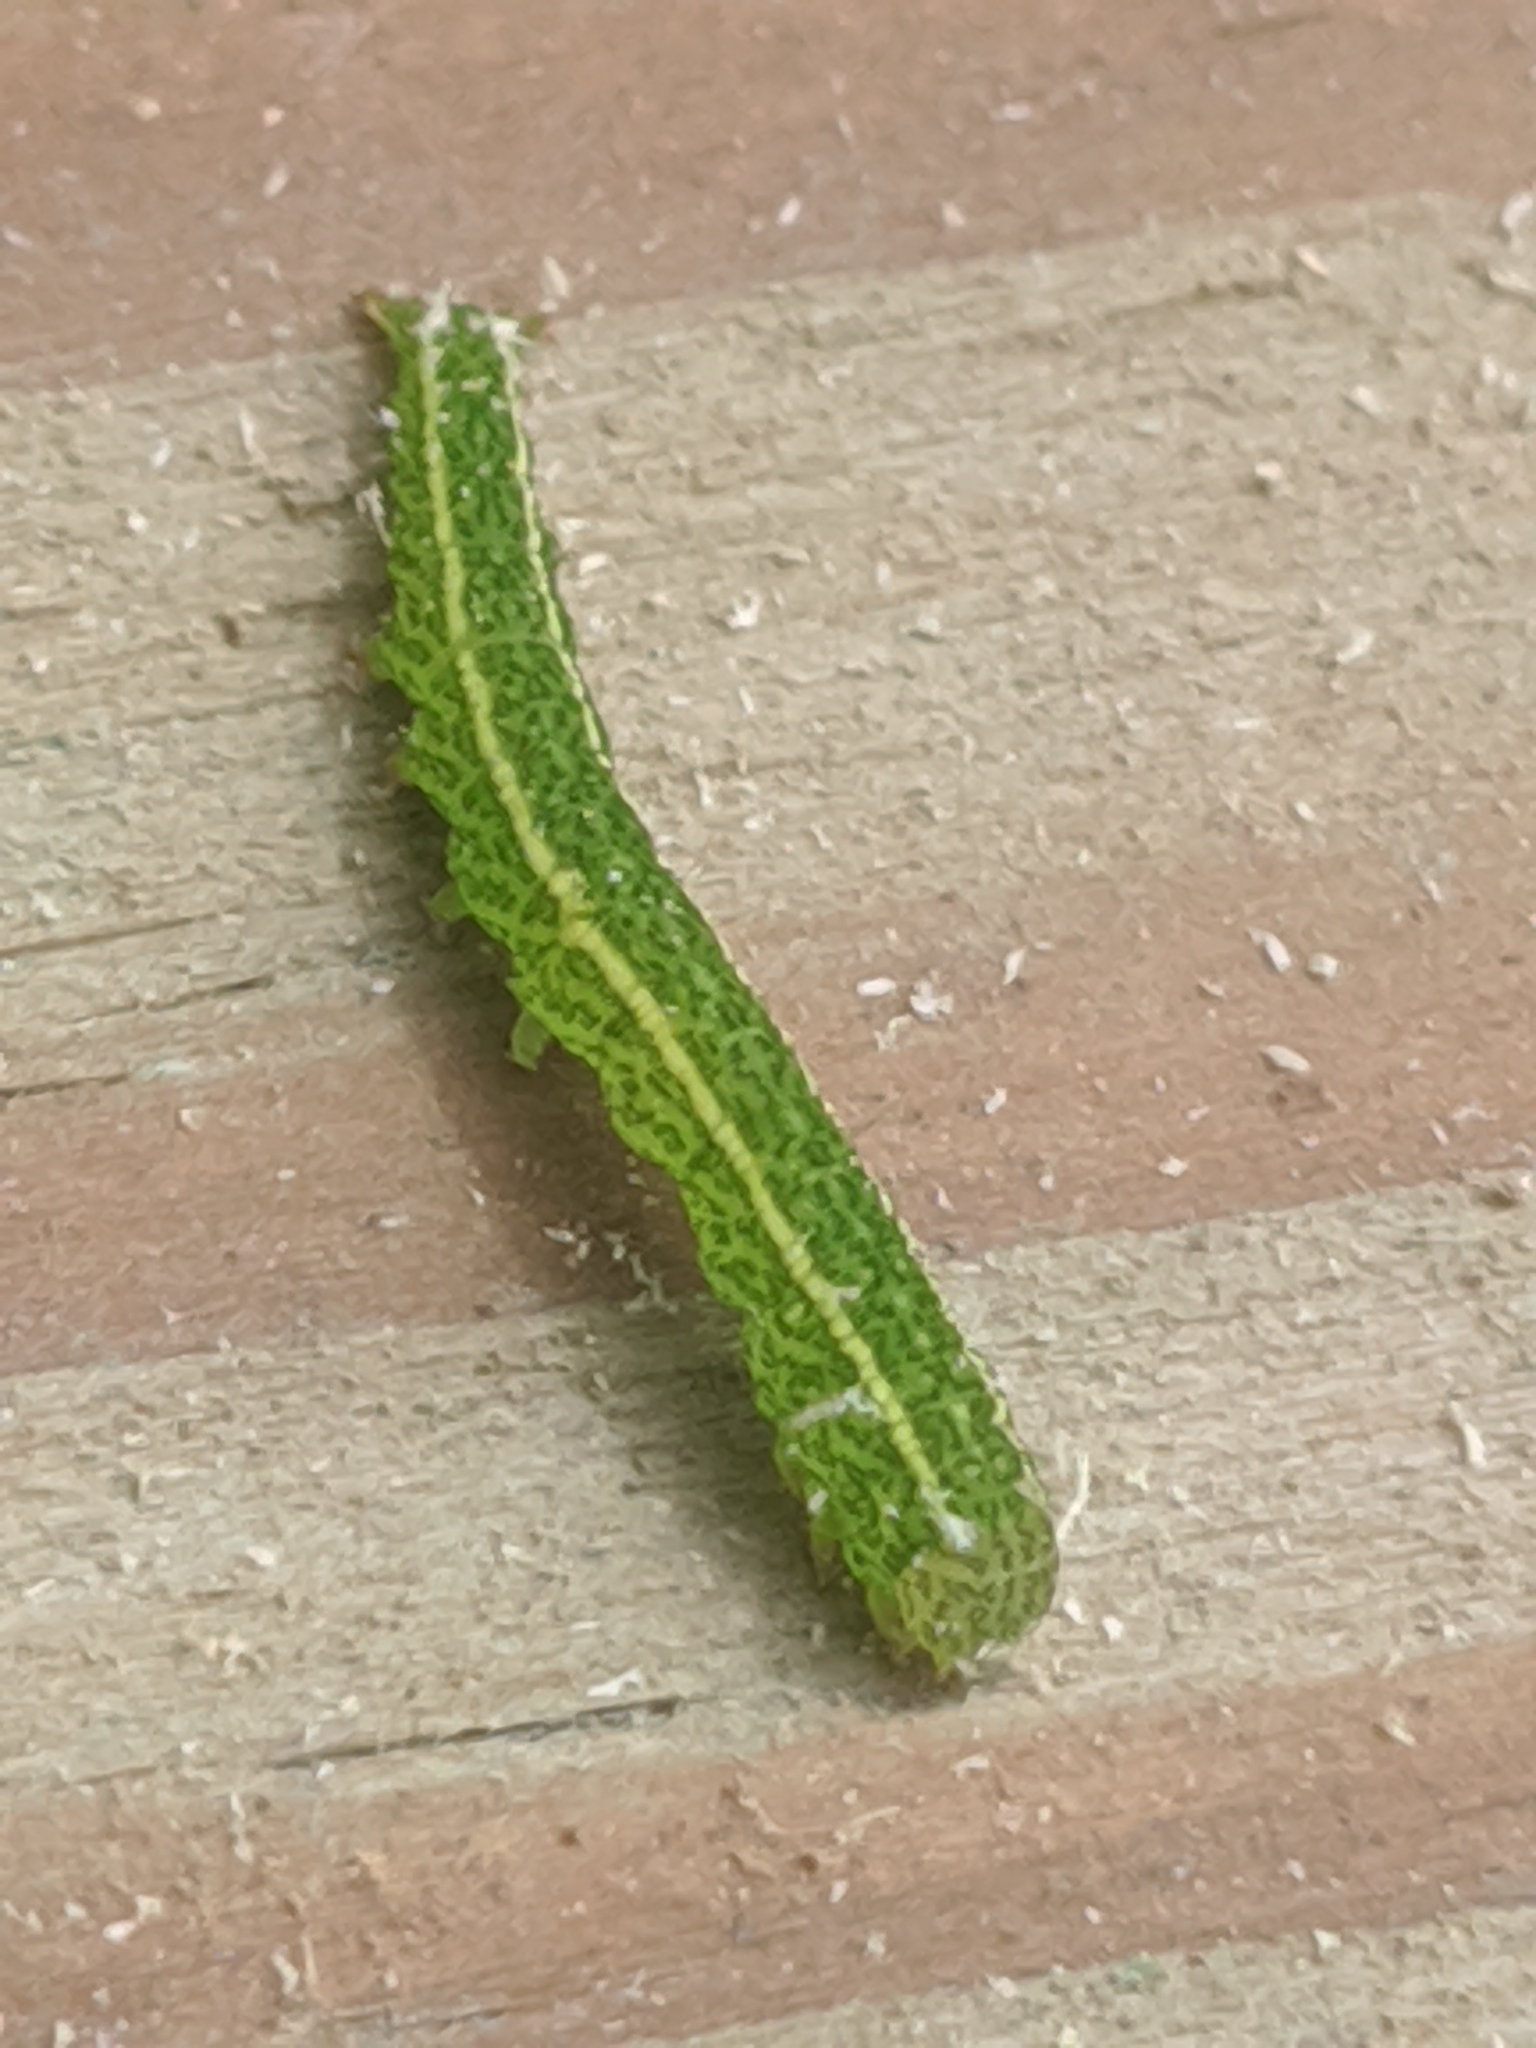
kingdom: Animalia
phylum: Arthropoda
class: Insecta
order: Lepidoptera
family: Erebidae
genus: Panopoda
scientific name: Panopoda rufimargo
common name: Red-lined panopoda moth
